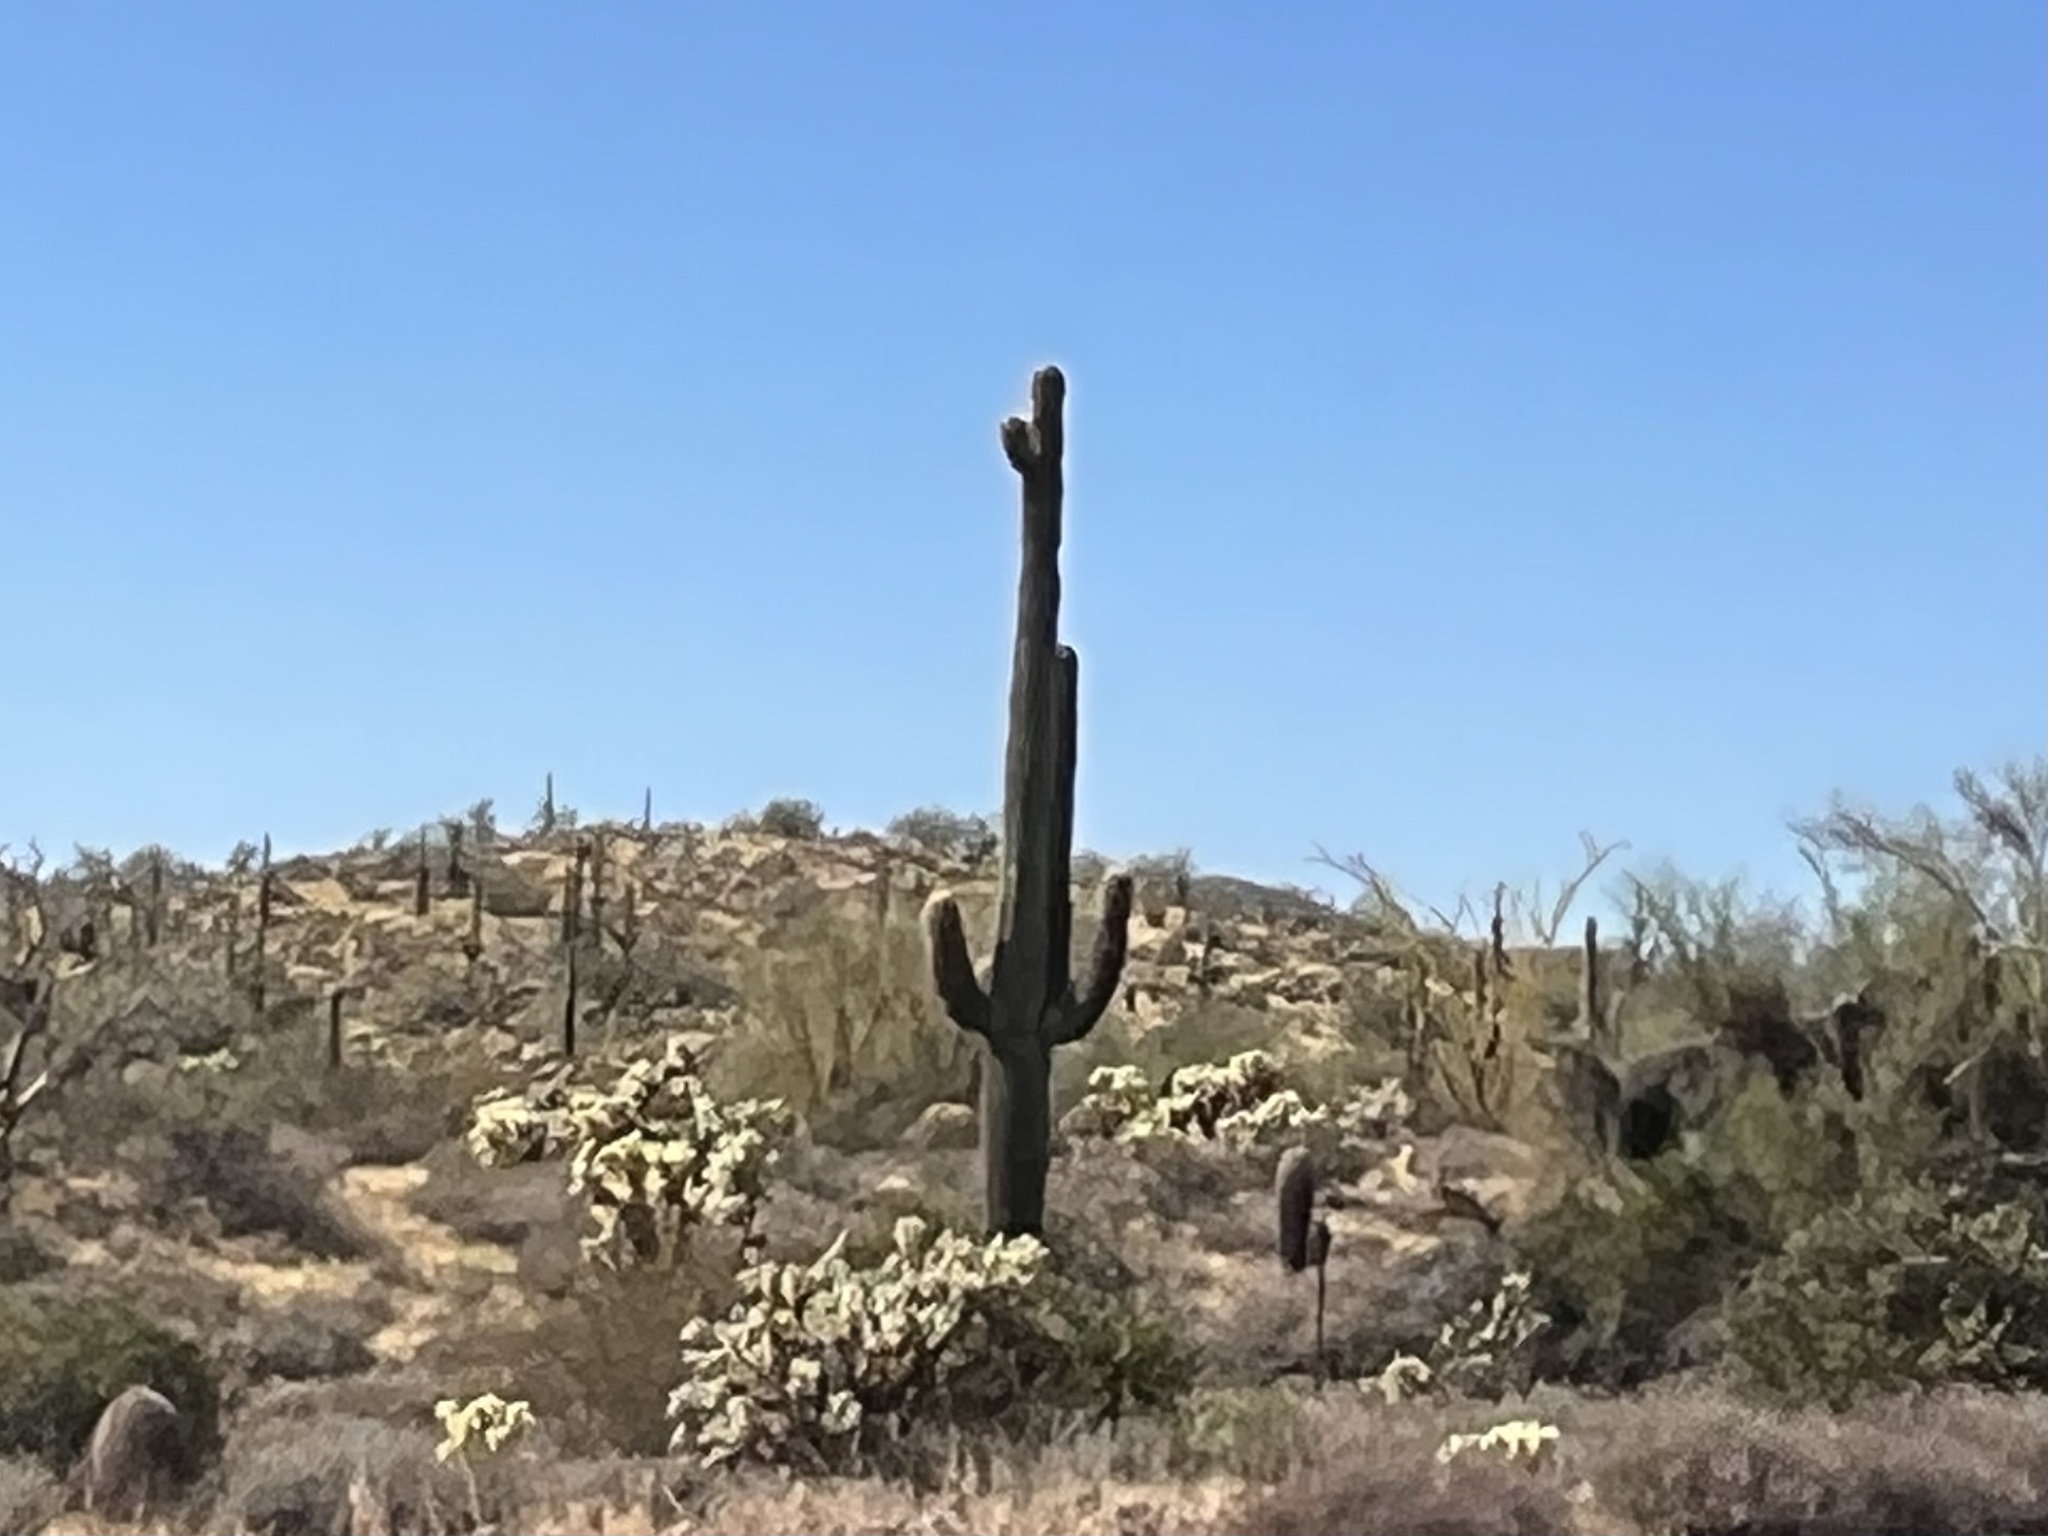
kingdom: Plantae
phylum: Tracheophyta
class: Magnoliopsida
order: Caryophyllales
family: Cactaceae
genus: Carnegiea
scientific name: Carnegiea gigantea
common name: Saguaro
